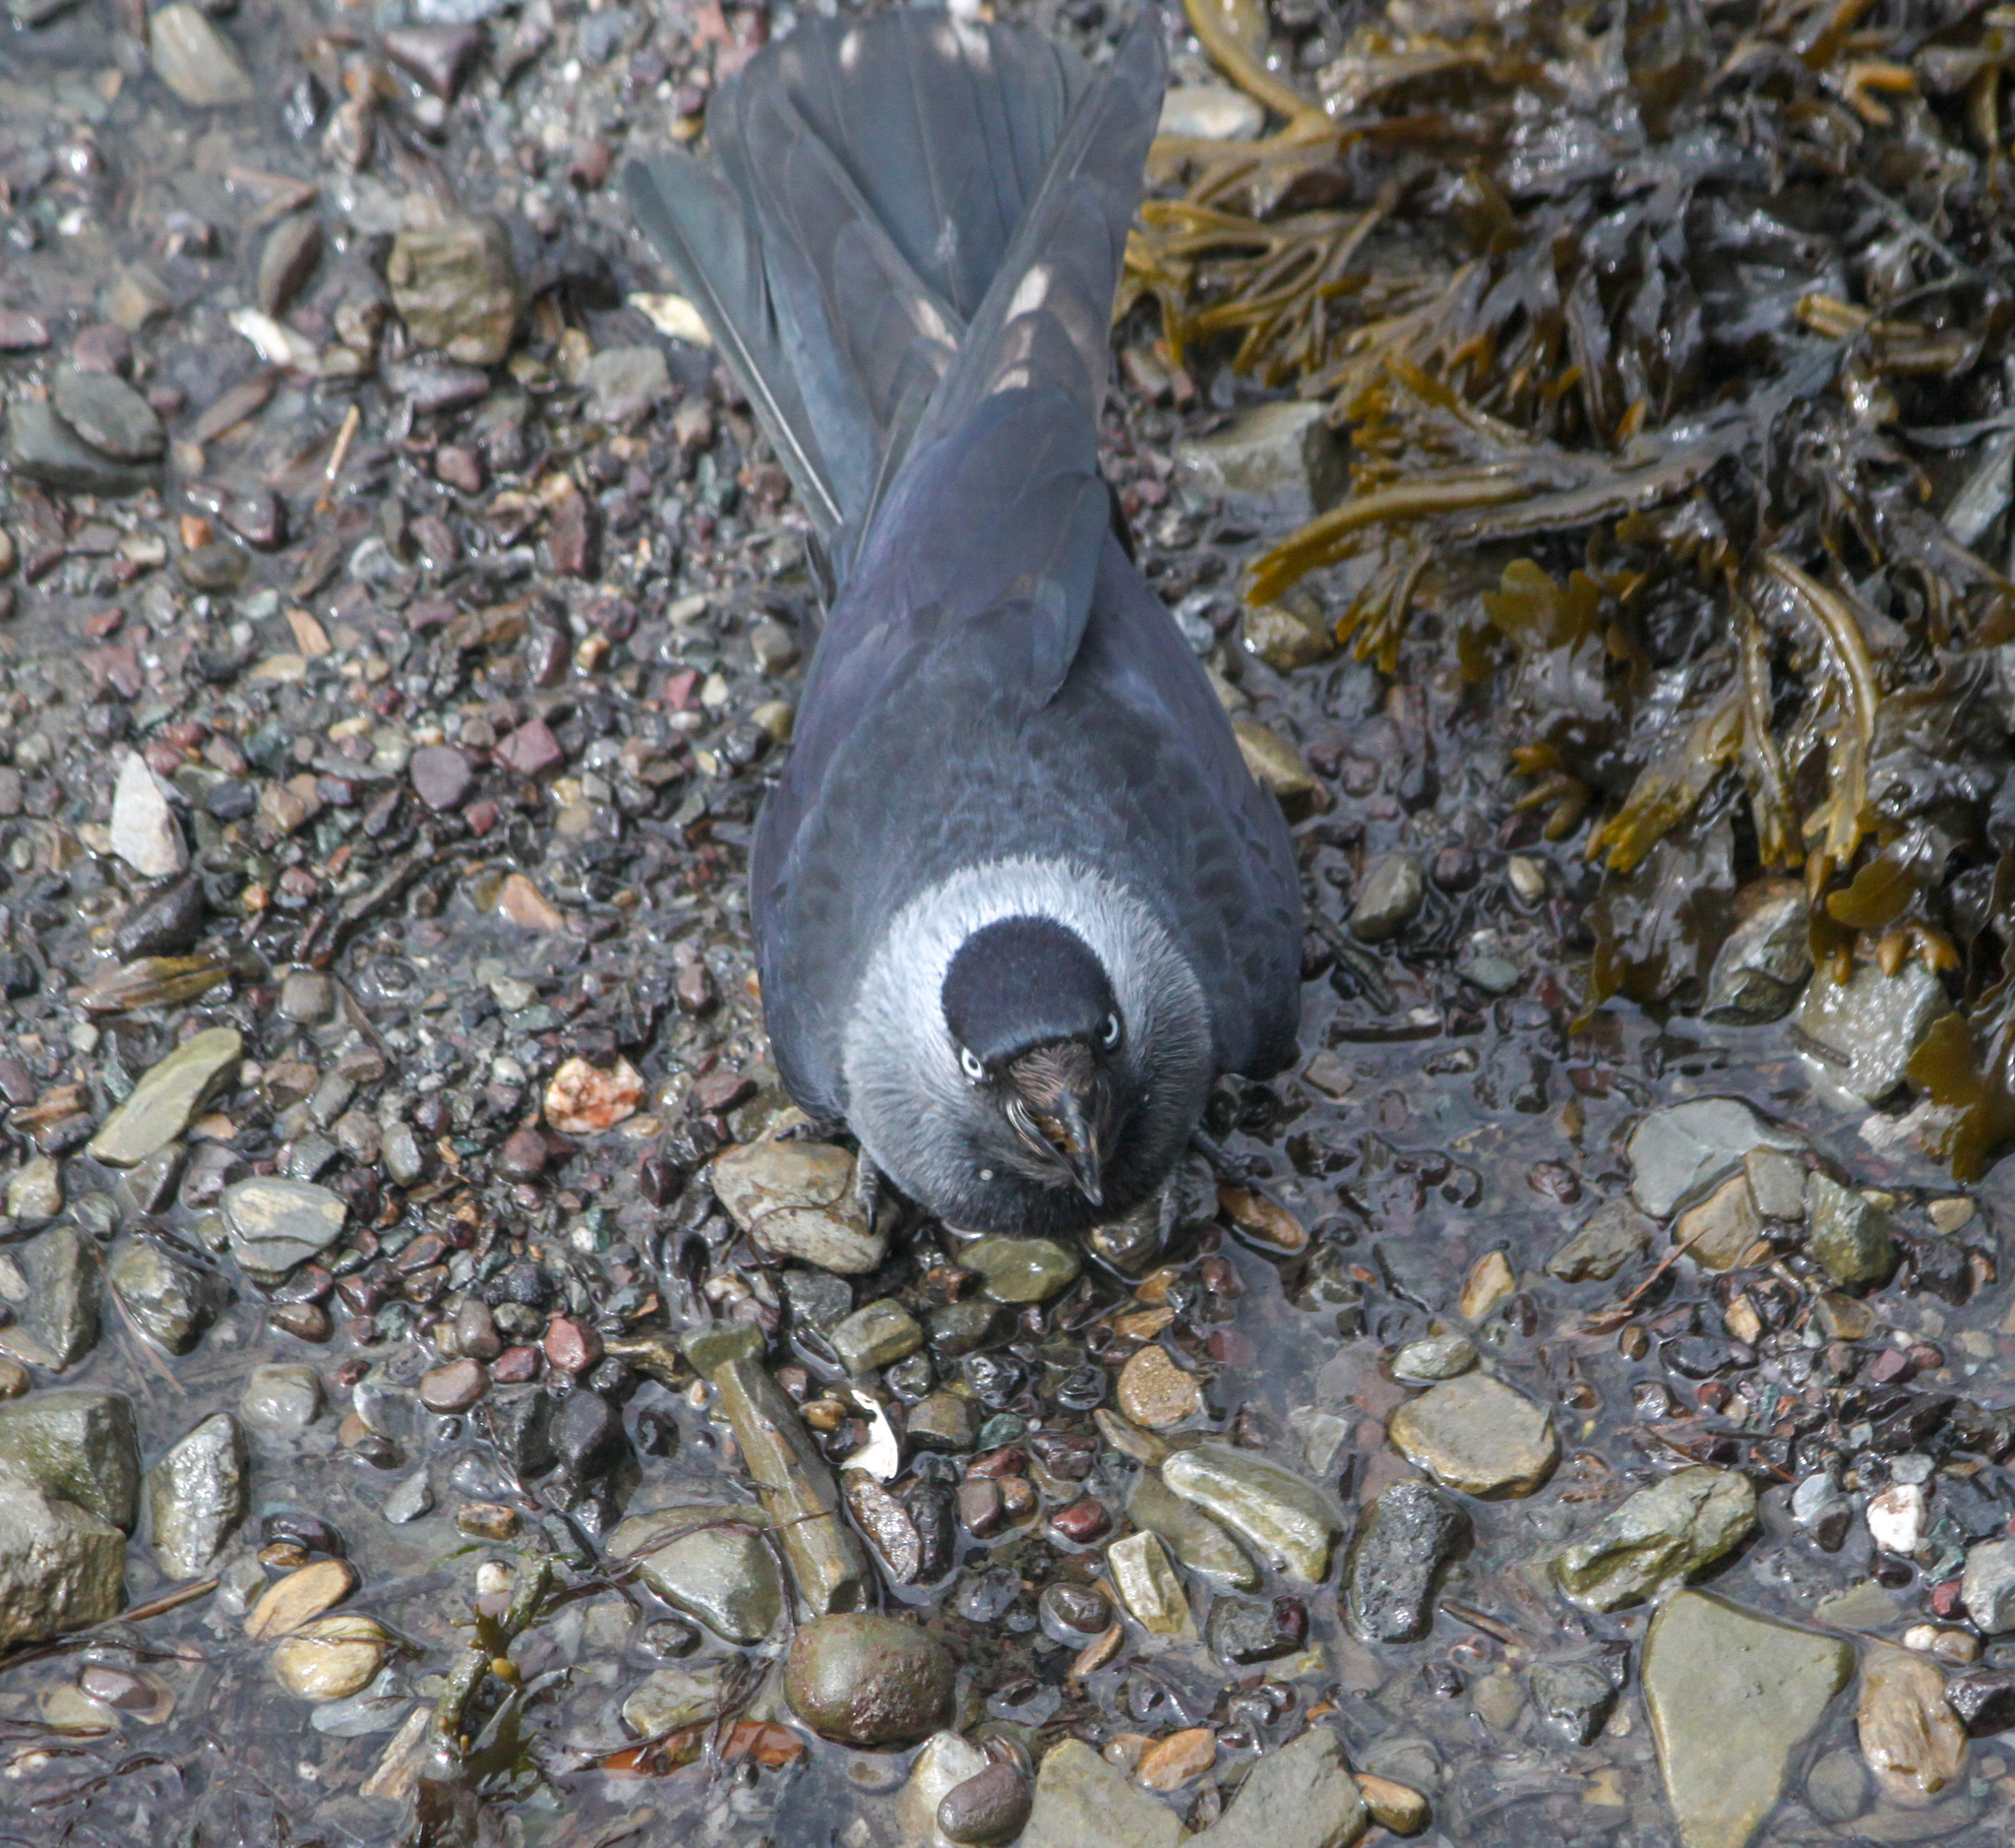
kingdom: Animalia
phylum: Chordata
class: Aves
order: Passeriformes
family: Corvidae
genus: Coloeus
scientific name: Coloeus monedula
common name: Western jackdaw
